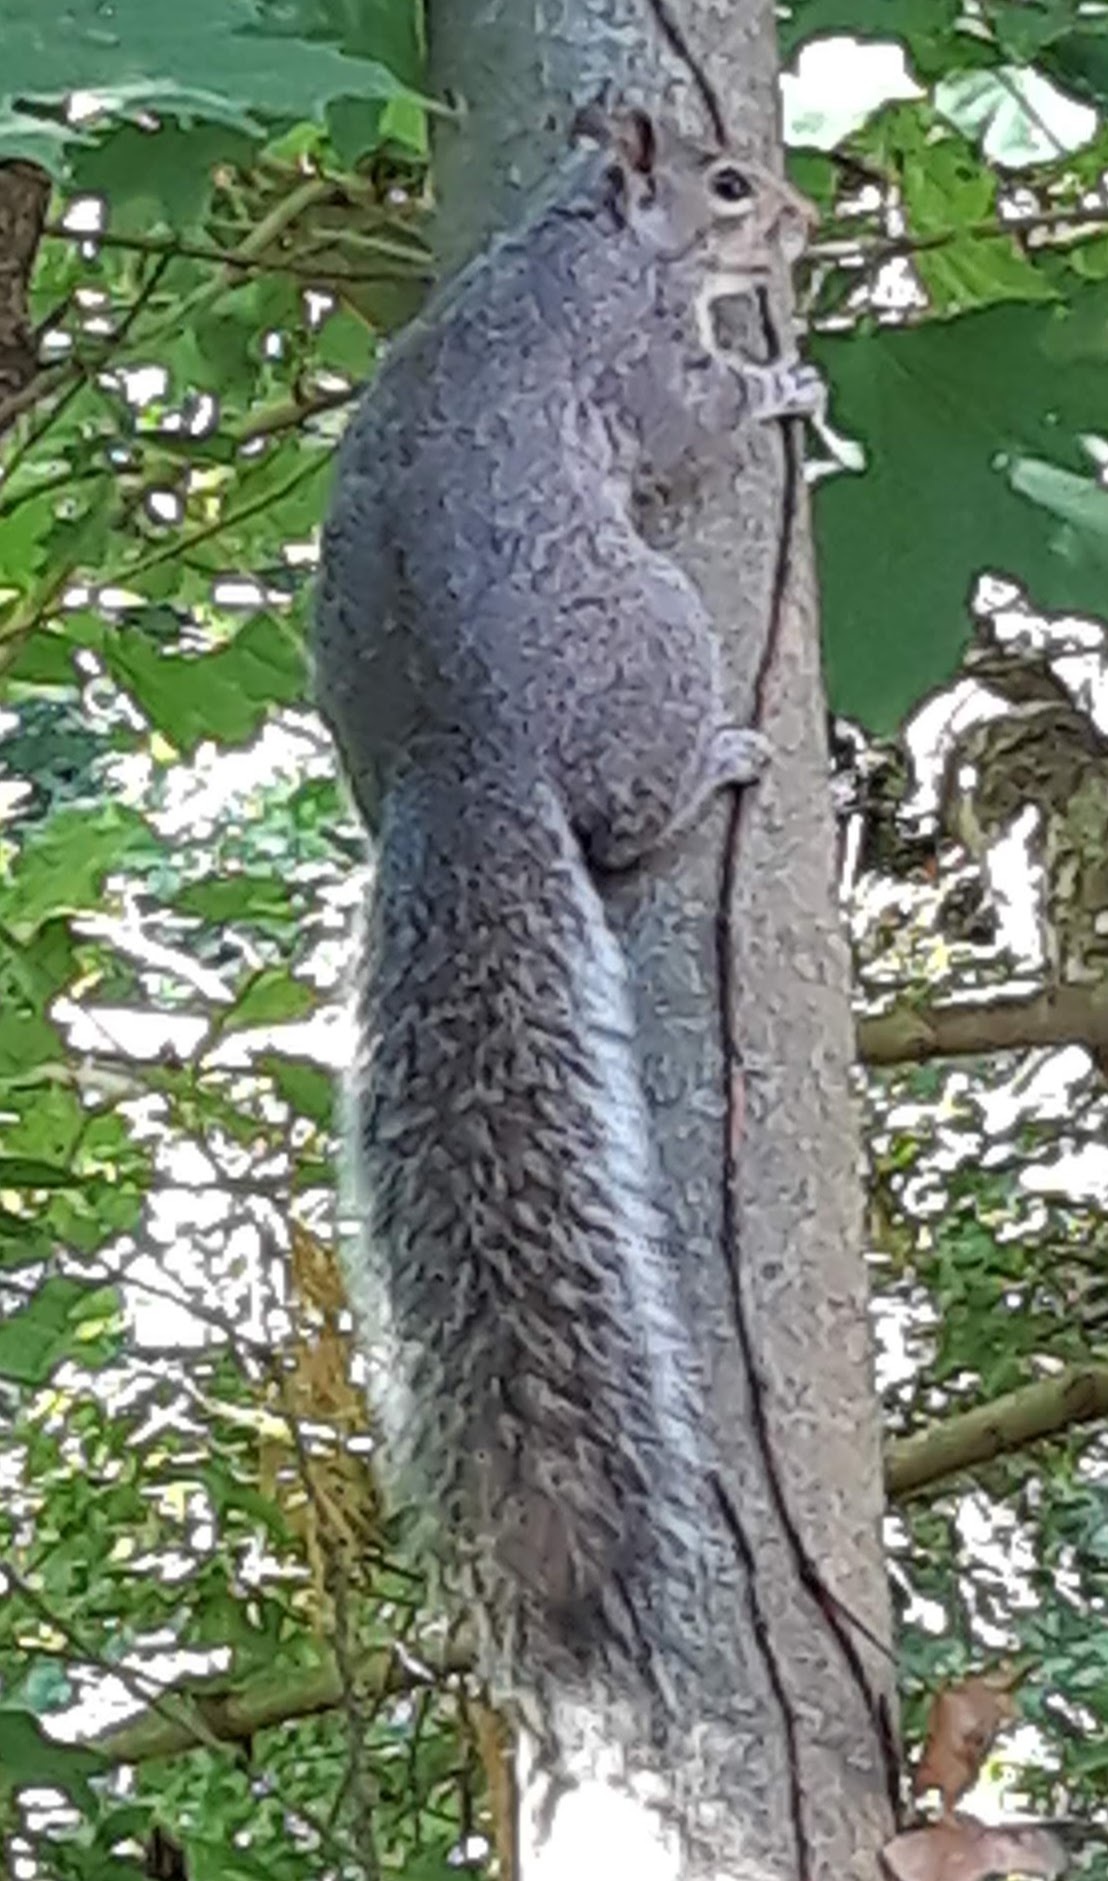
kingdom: Animalia
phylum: Chordata
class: Mammalia
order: Rodentia
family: Sciuridae
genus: Sciurus
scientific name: Sciurus carolinensis
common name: Eastern gray squirrel
